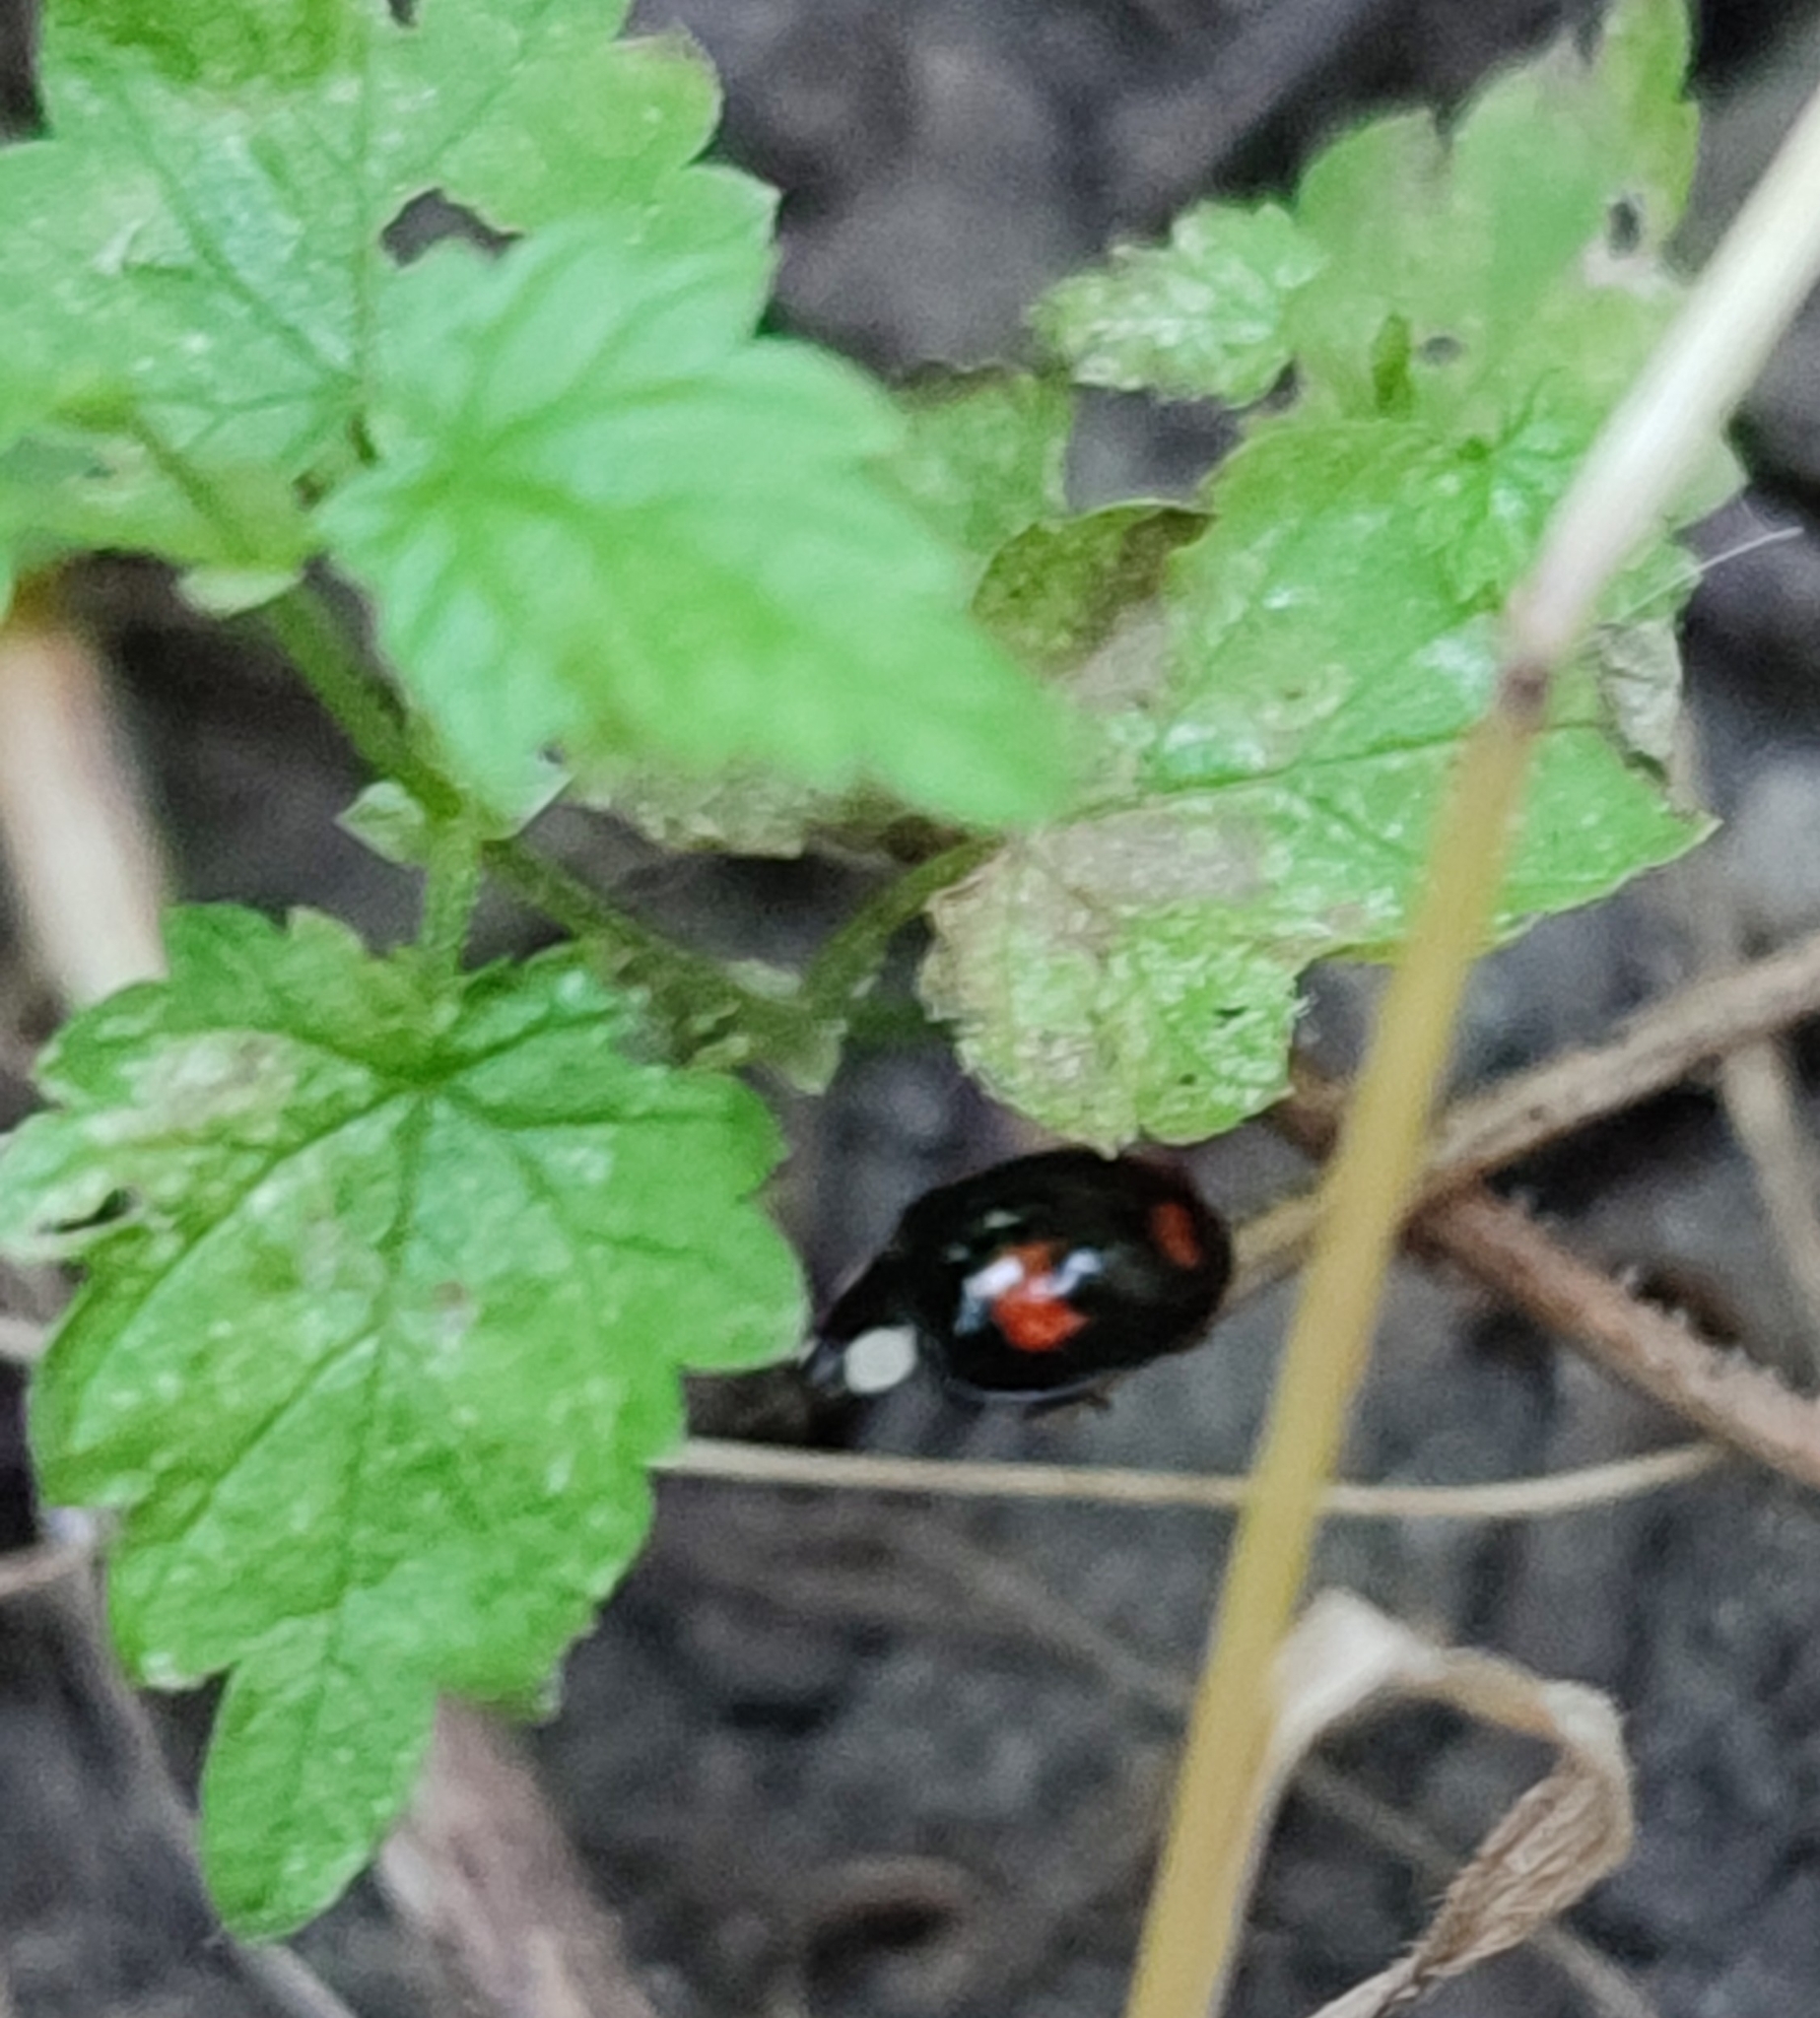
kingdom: Animalia
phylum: Arthropoda
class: Insecta
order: Coleoptera
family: Coccinellidae
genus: Harmonia
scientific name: Harmonia axyridis
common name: Harlequin ladybird
